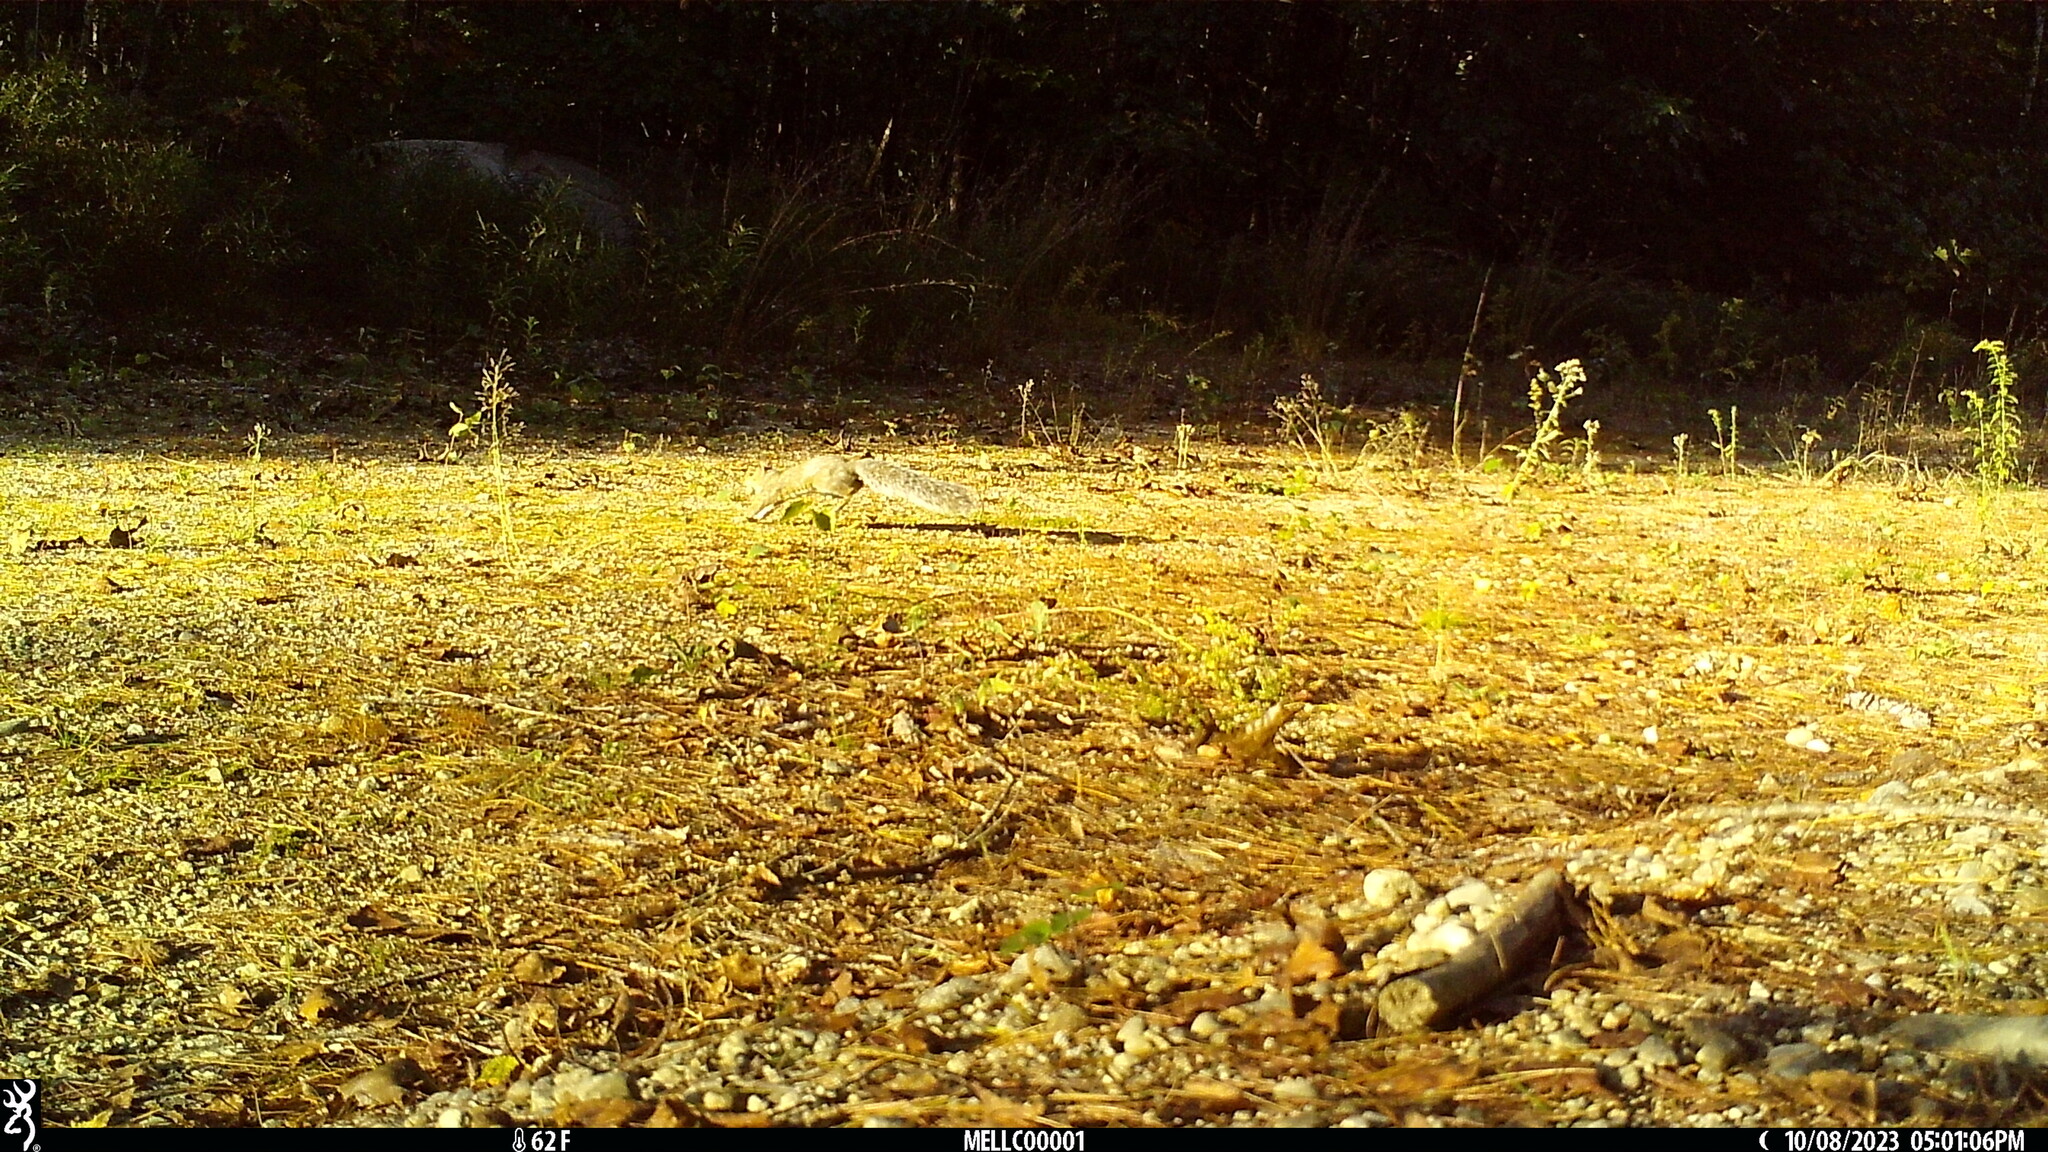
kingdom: Animalia
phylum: Chordata
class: Mammalia
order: Rodentia
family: Sciuridae
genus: Sciurus
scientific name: Sciurus carolinensis
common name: Eastern gray squirrel
